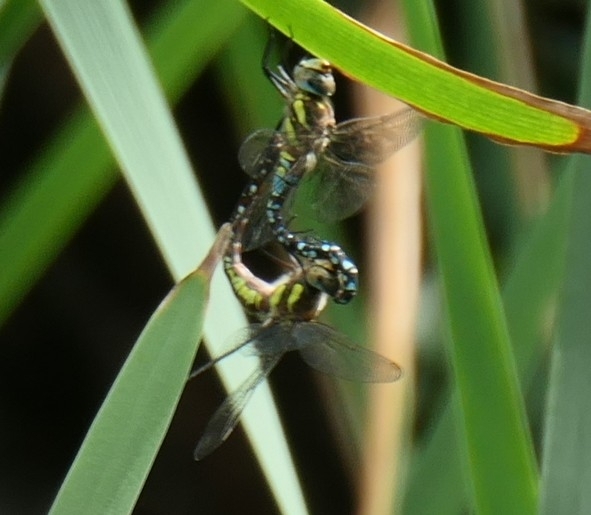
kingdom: Animalia
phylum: Arthropoda
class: Insecta
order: Odonata
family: Aeshnidae
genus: Aeshna
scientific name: Aeshna mixta
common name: Migrant hawker
